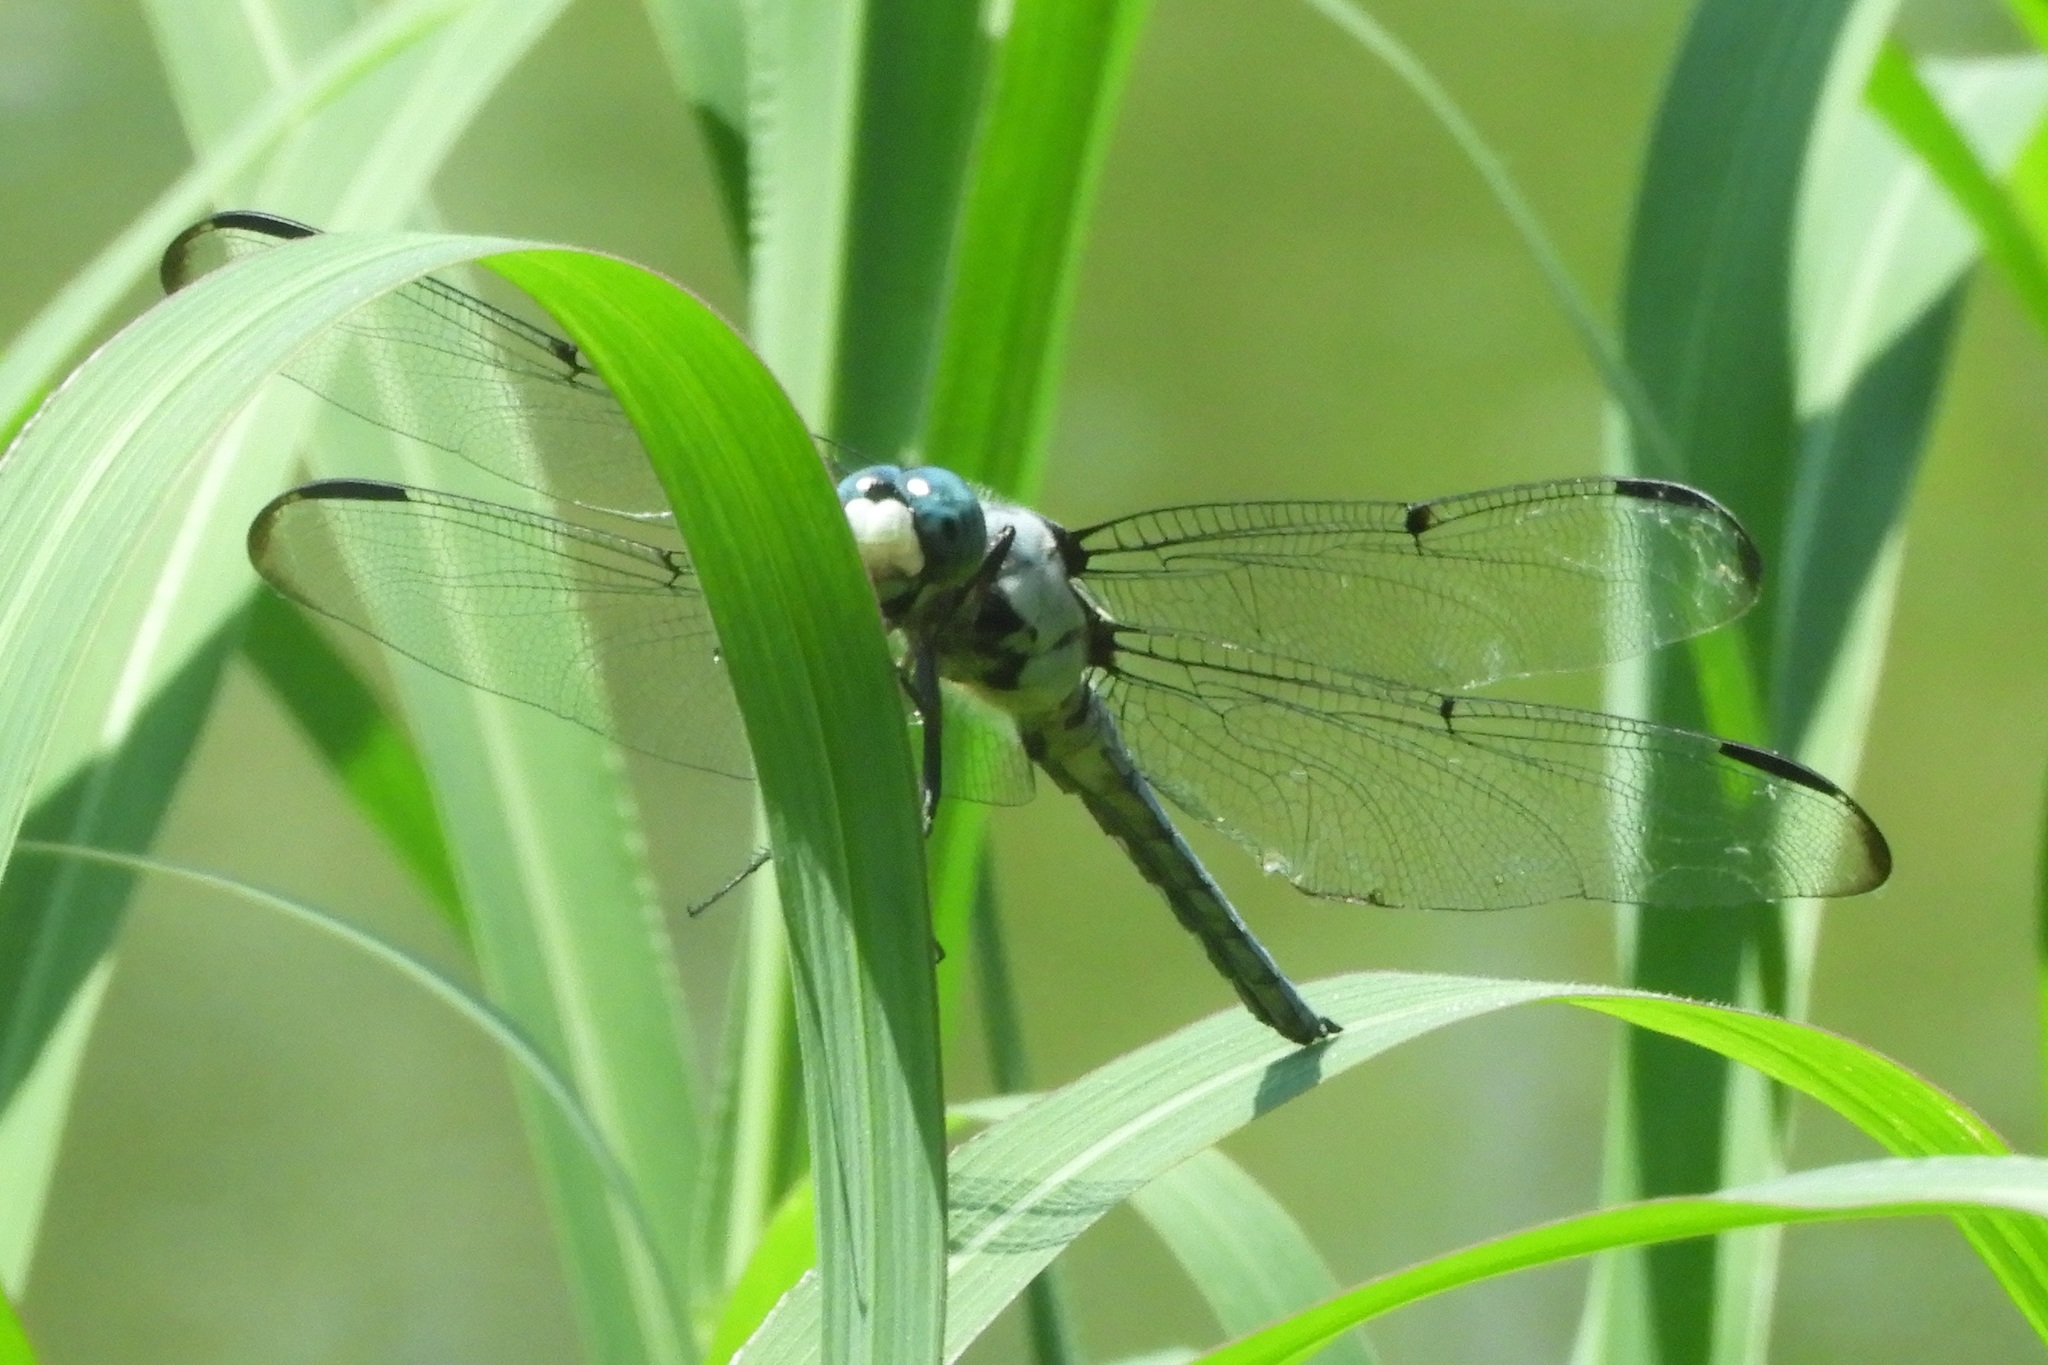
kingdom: Animalia
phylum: Arthropoda
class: Insecta
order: Odonata
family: Libellulidae
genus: Libellula
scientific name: Libellula vibrans
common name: Great blue skimmer
